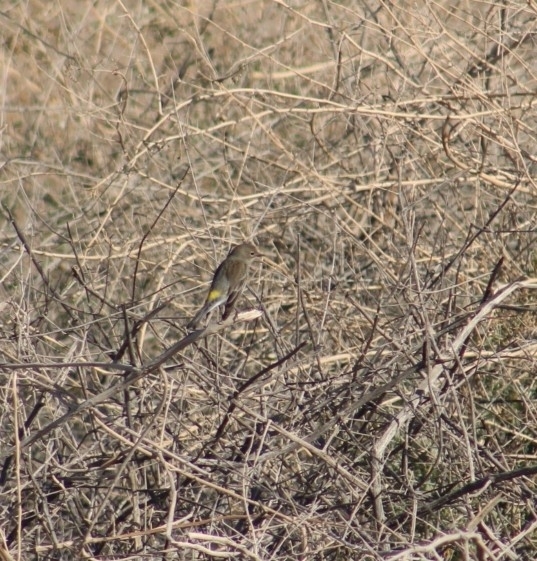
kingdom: Animalia
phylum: Chordata
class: Aves
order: Passeriformes
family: Parulidae
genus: Setophaga
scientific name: Setophaga coronata
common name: Myrtle warbler
